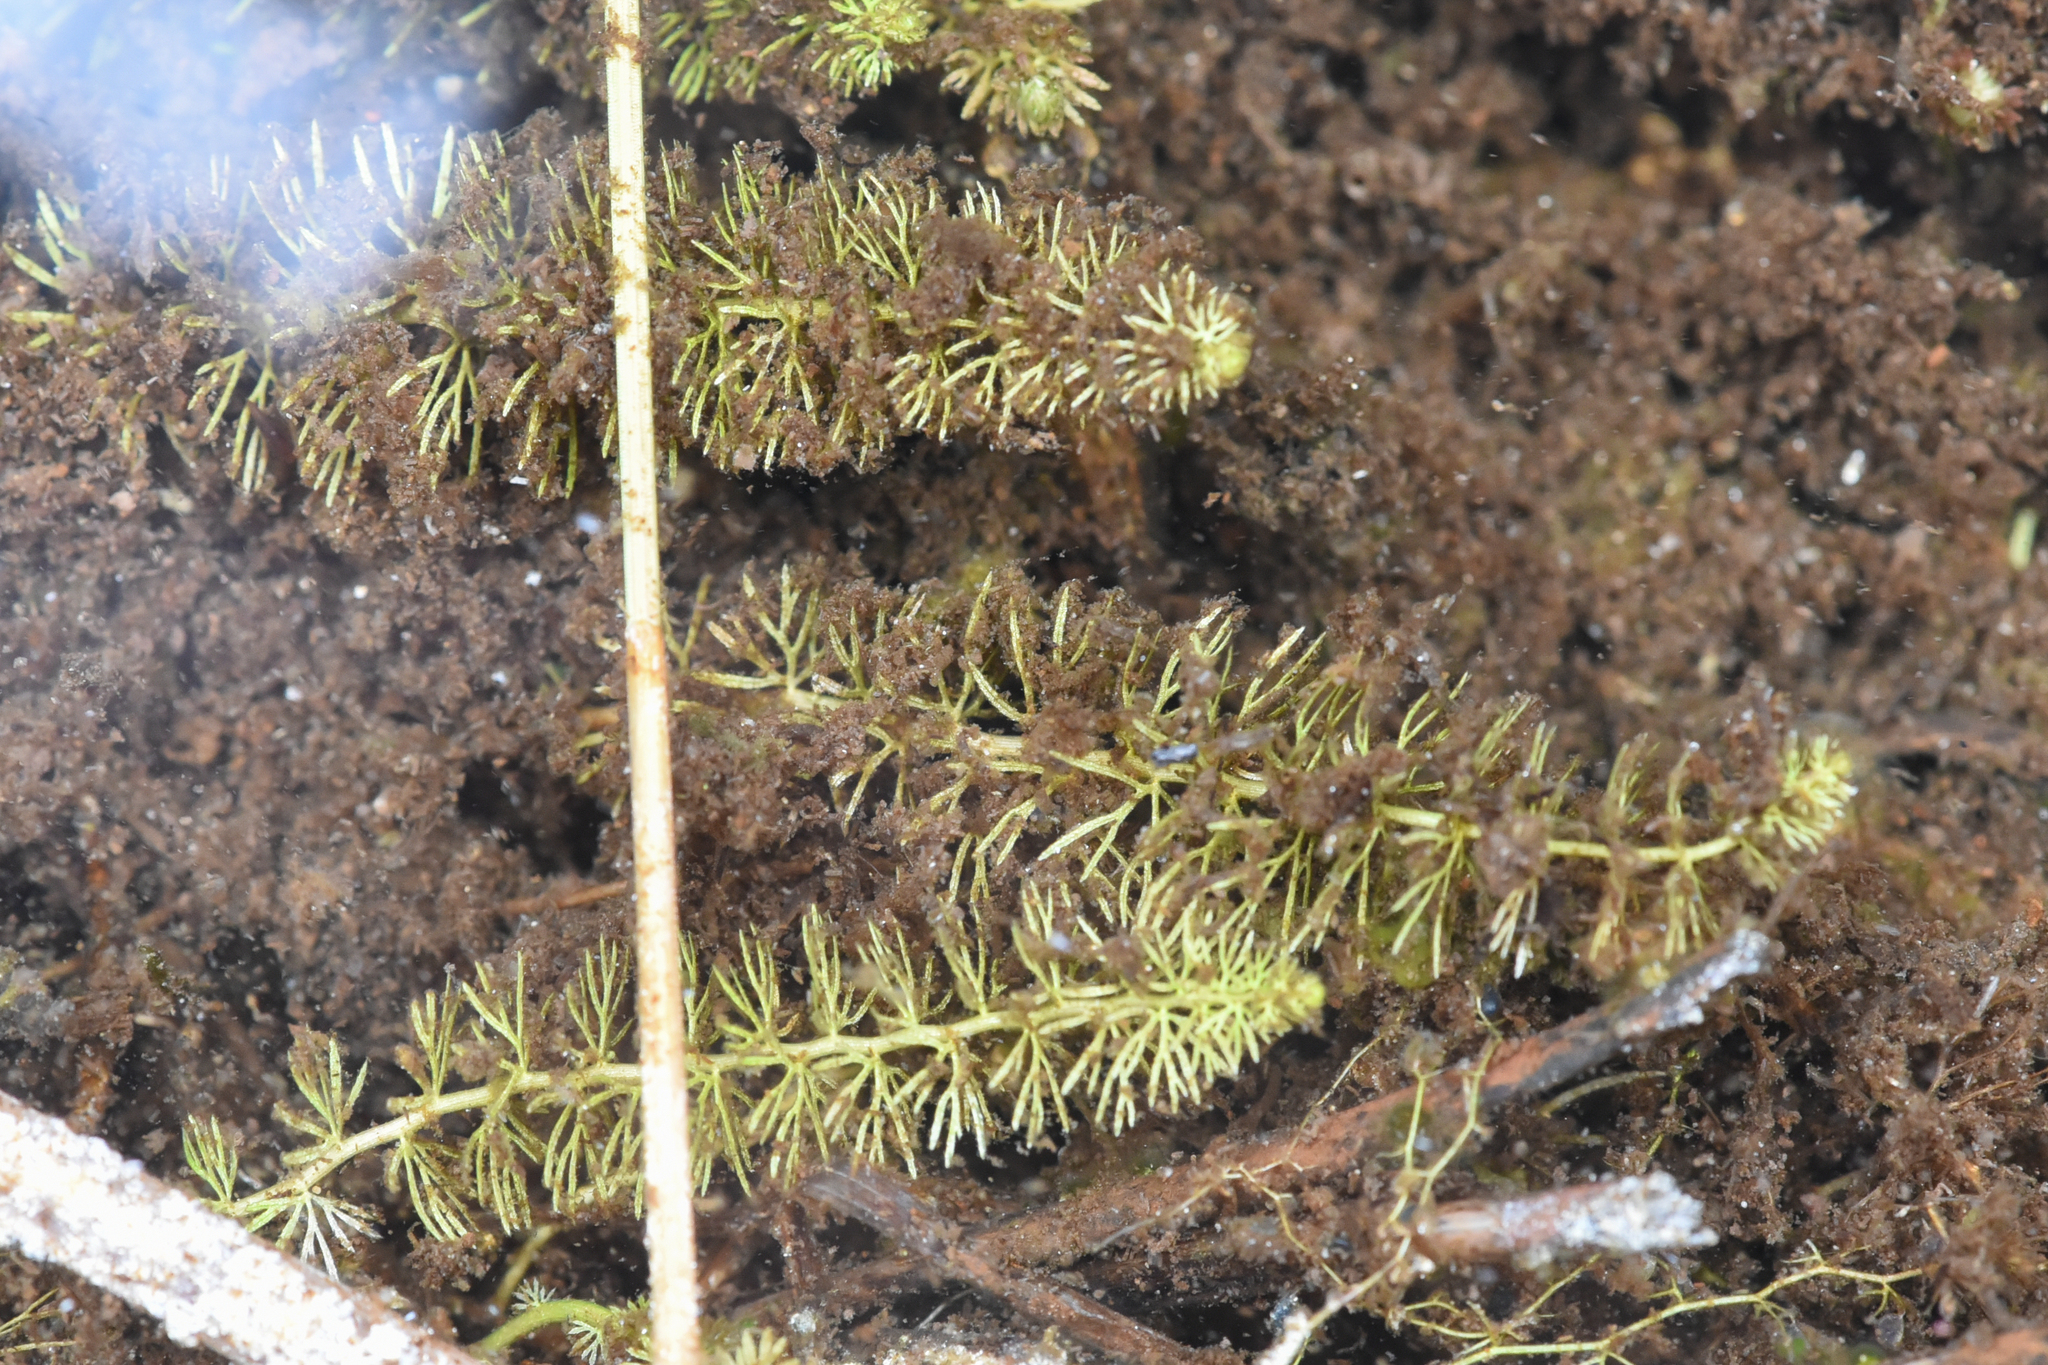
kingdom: Plantae
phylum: Tracheophyta
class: Magnoliopsida
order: Lamiales
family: Lentibulariaceae
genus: Utricularia
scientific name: Utricularia intermedia
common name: Intermediate bladderwort
